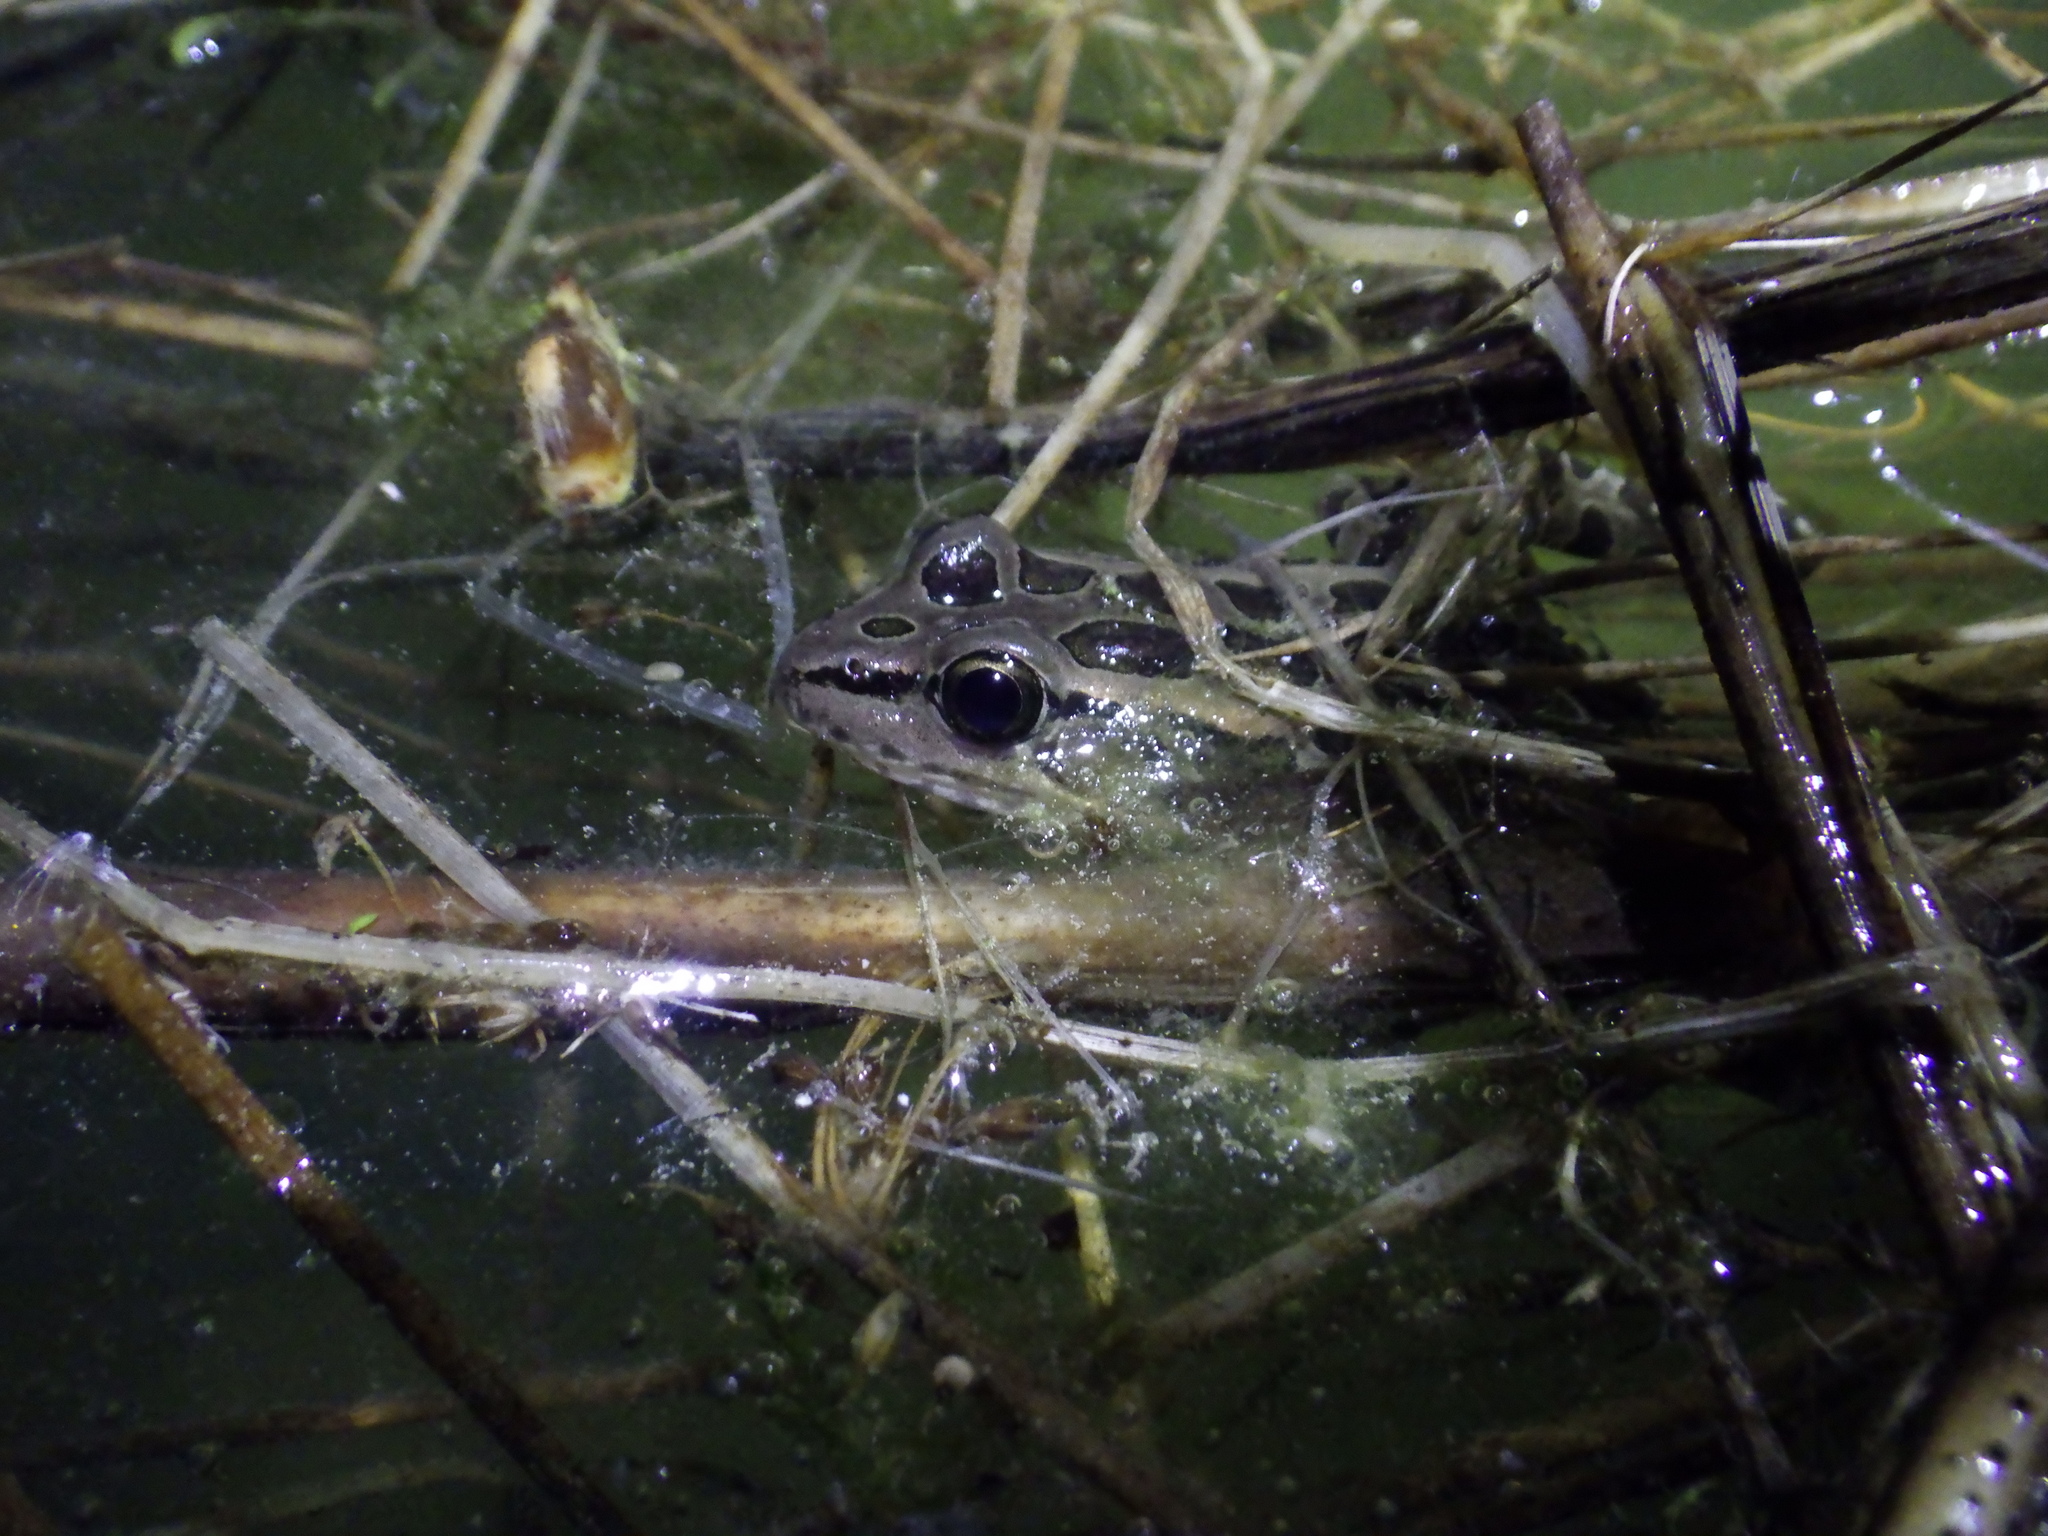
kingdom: Animalia
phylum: Chordata
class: Amphibia
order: Anura
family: Ranidae
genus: Lithobates
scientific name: Lithobates palustris
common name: Pickerel frog
